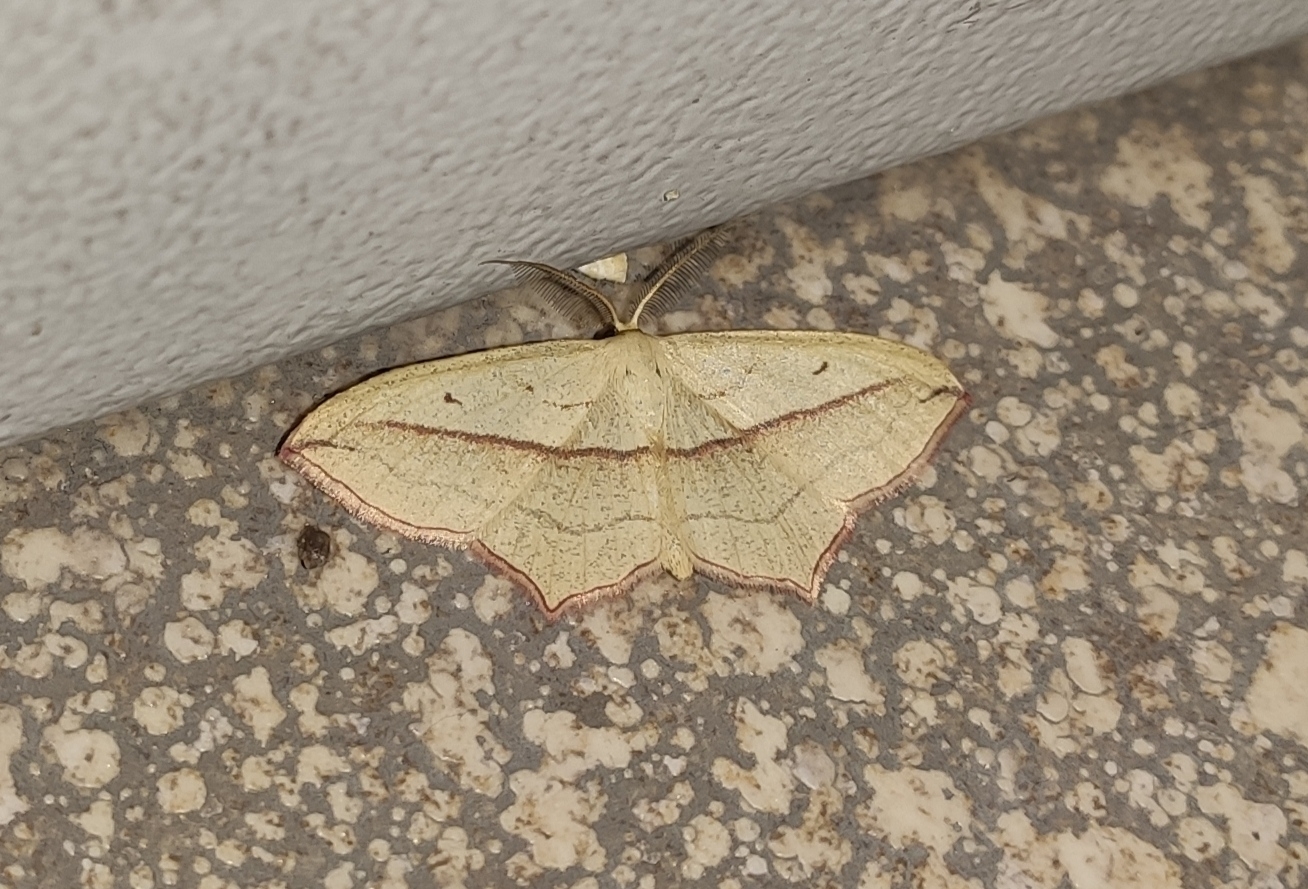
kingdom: Animalia
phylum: Arthropoda
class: Insecta
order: Lepidoptera
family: Geometridae
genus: Timandra
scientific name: Timandra comae
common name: Blood-vein
